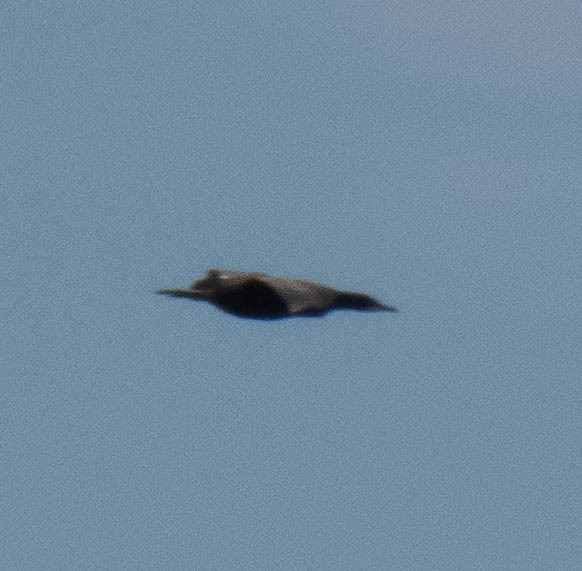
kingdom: Animalia
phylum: Chordata
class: Aves
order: Suliformes
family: Phalacrocoracidae
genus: Phalacrocorax
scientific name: Phalacrocorax auritus
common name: Double-crested cormorant
